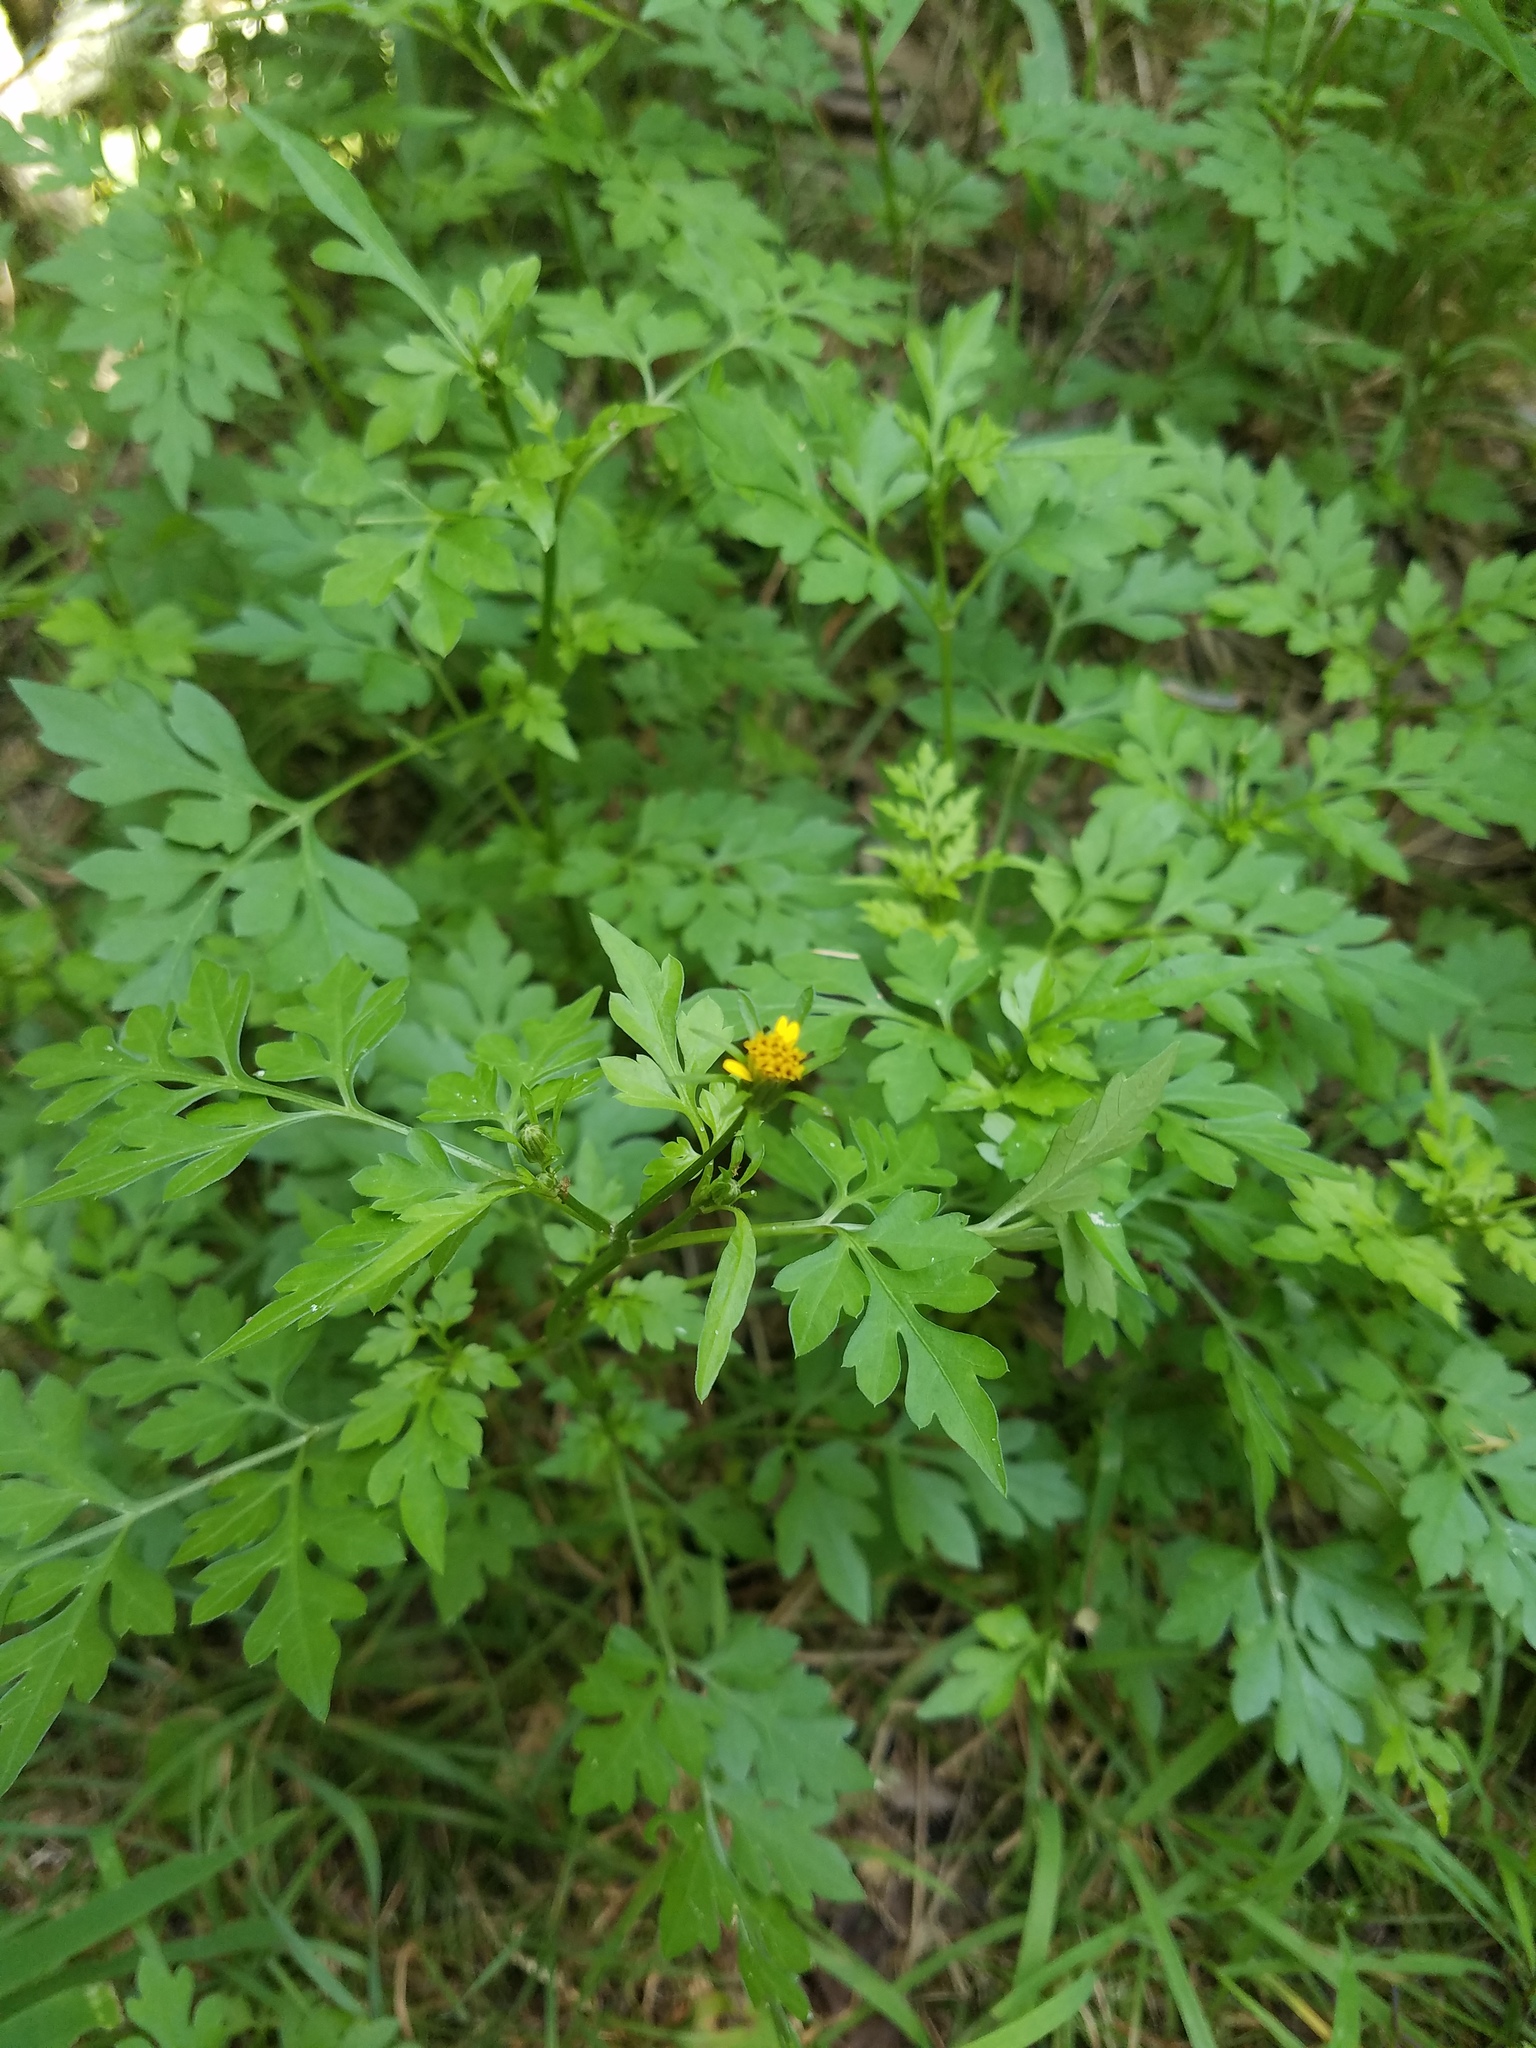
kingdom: Plantae
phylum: Tracheophyta
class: Magnoliopsida
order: Asterales
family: Asteraceae
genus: Bidens
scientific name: Bidens bipinnata
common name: Spanish-needles
